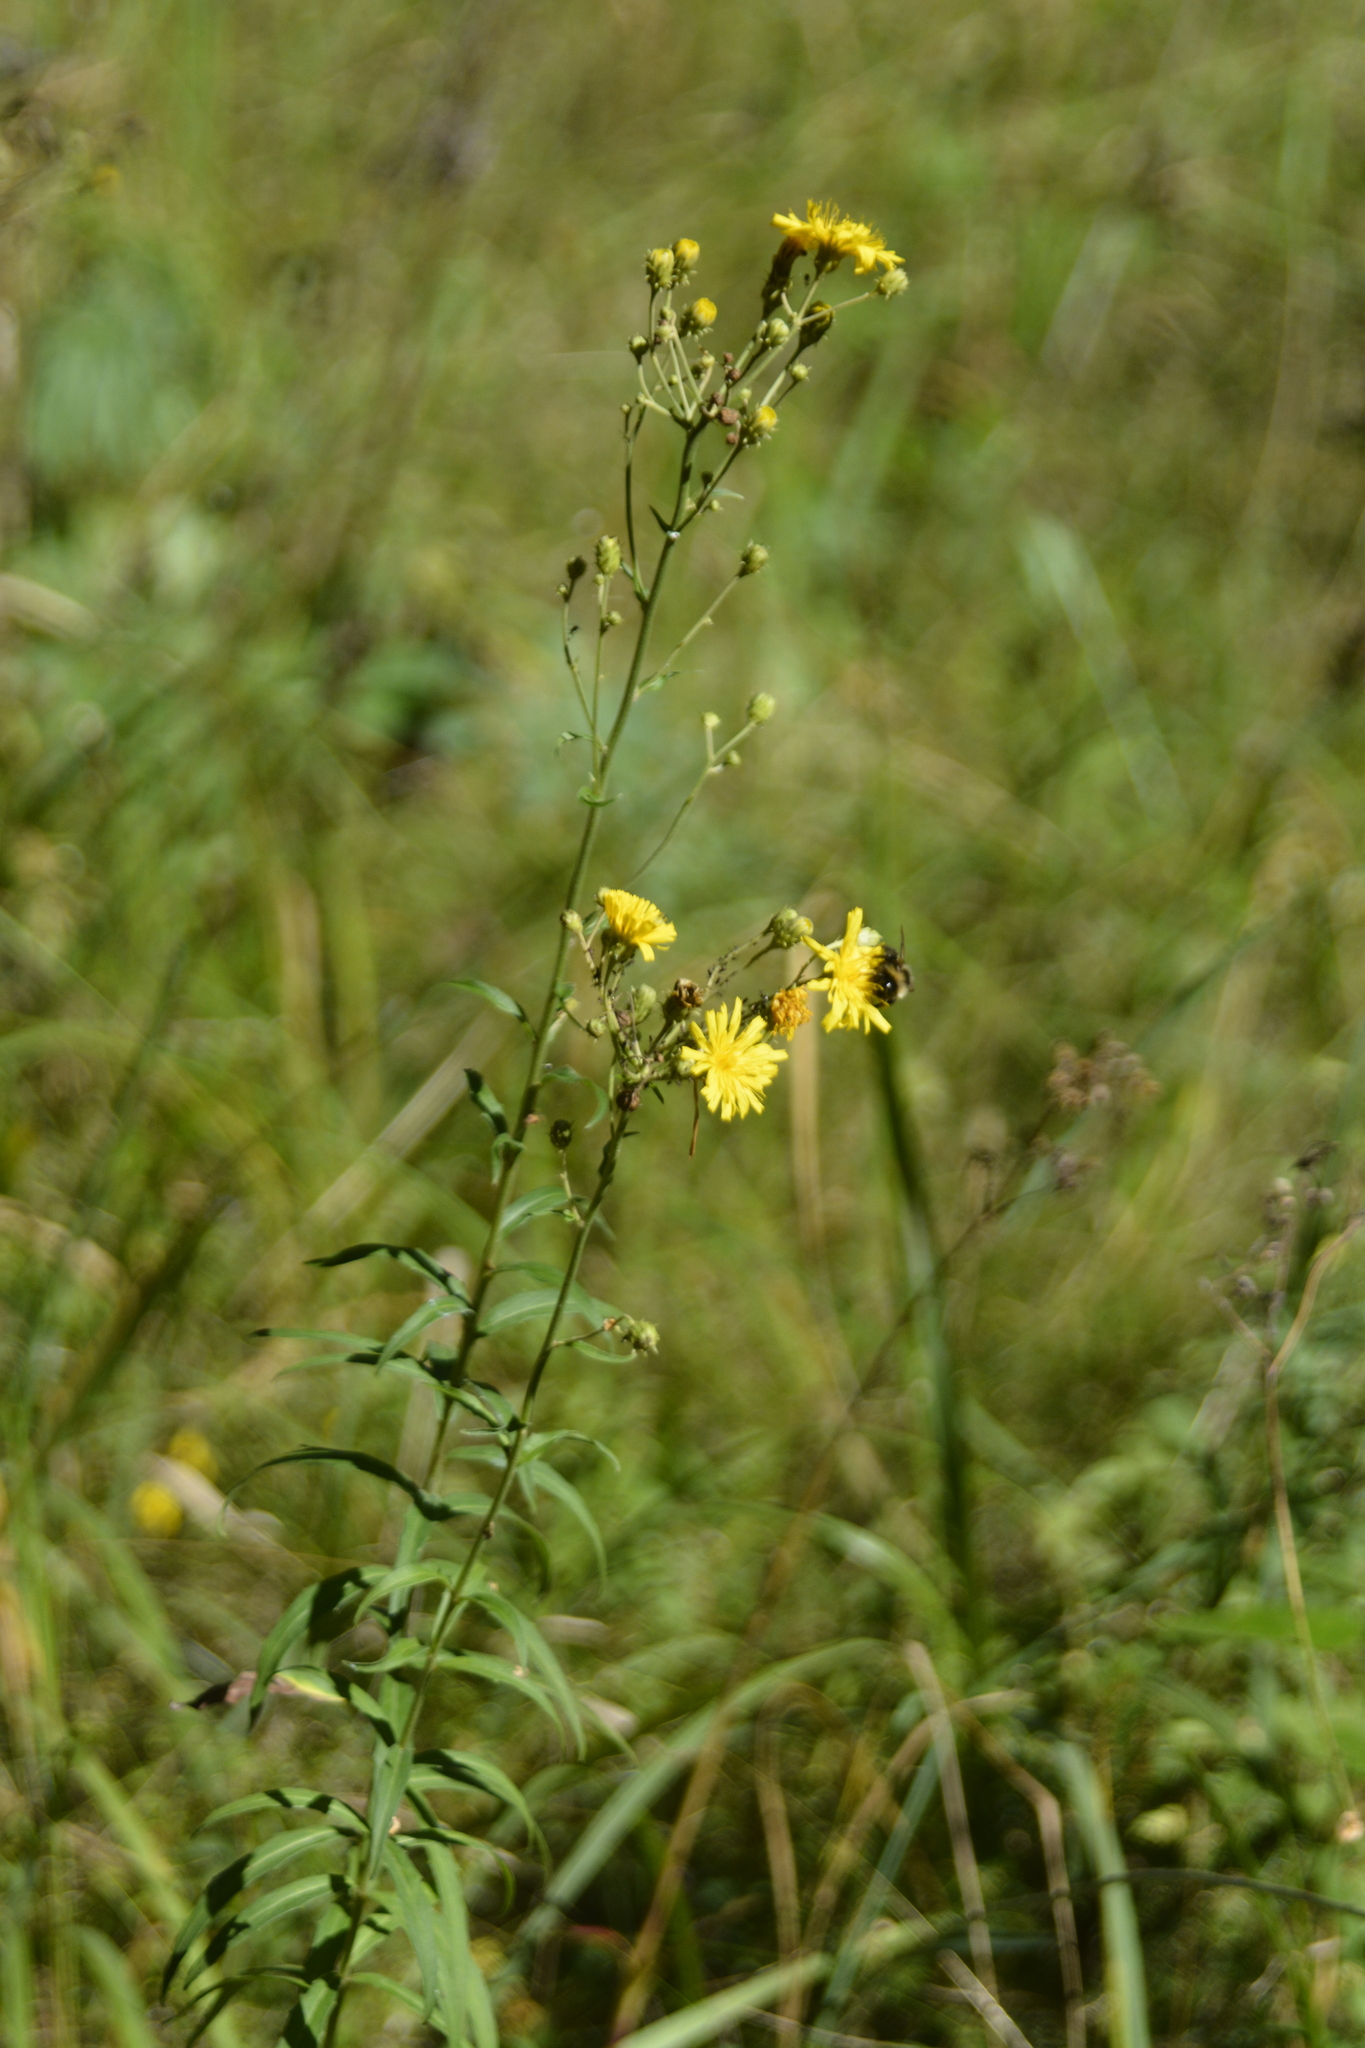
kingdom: Plantae
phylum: Tracheophyta
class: Magnoliopsida
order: Asterales
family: Asteraceae
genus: Hieracium
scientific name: Hieracium umbellatum
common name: Northern hawkweed
